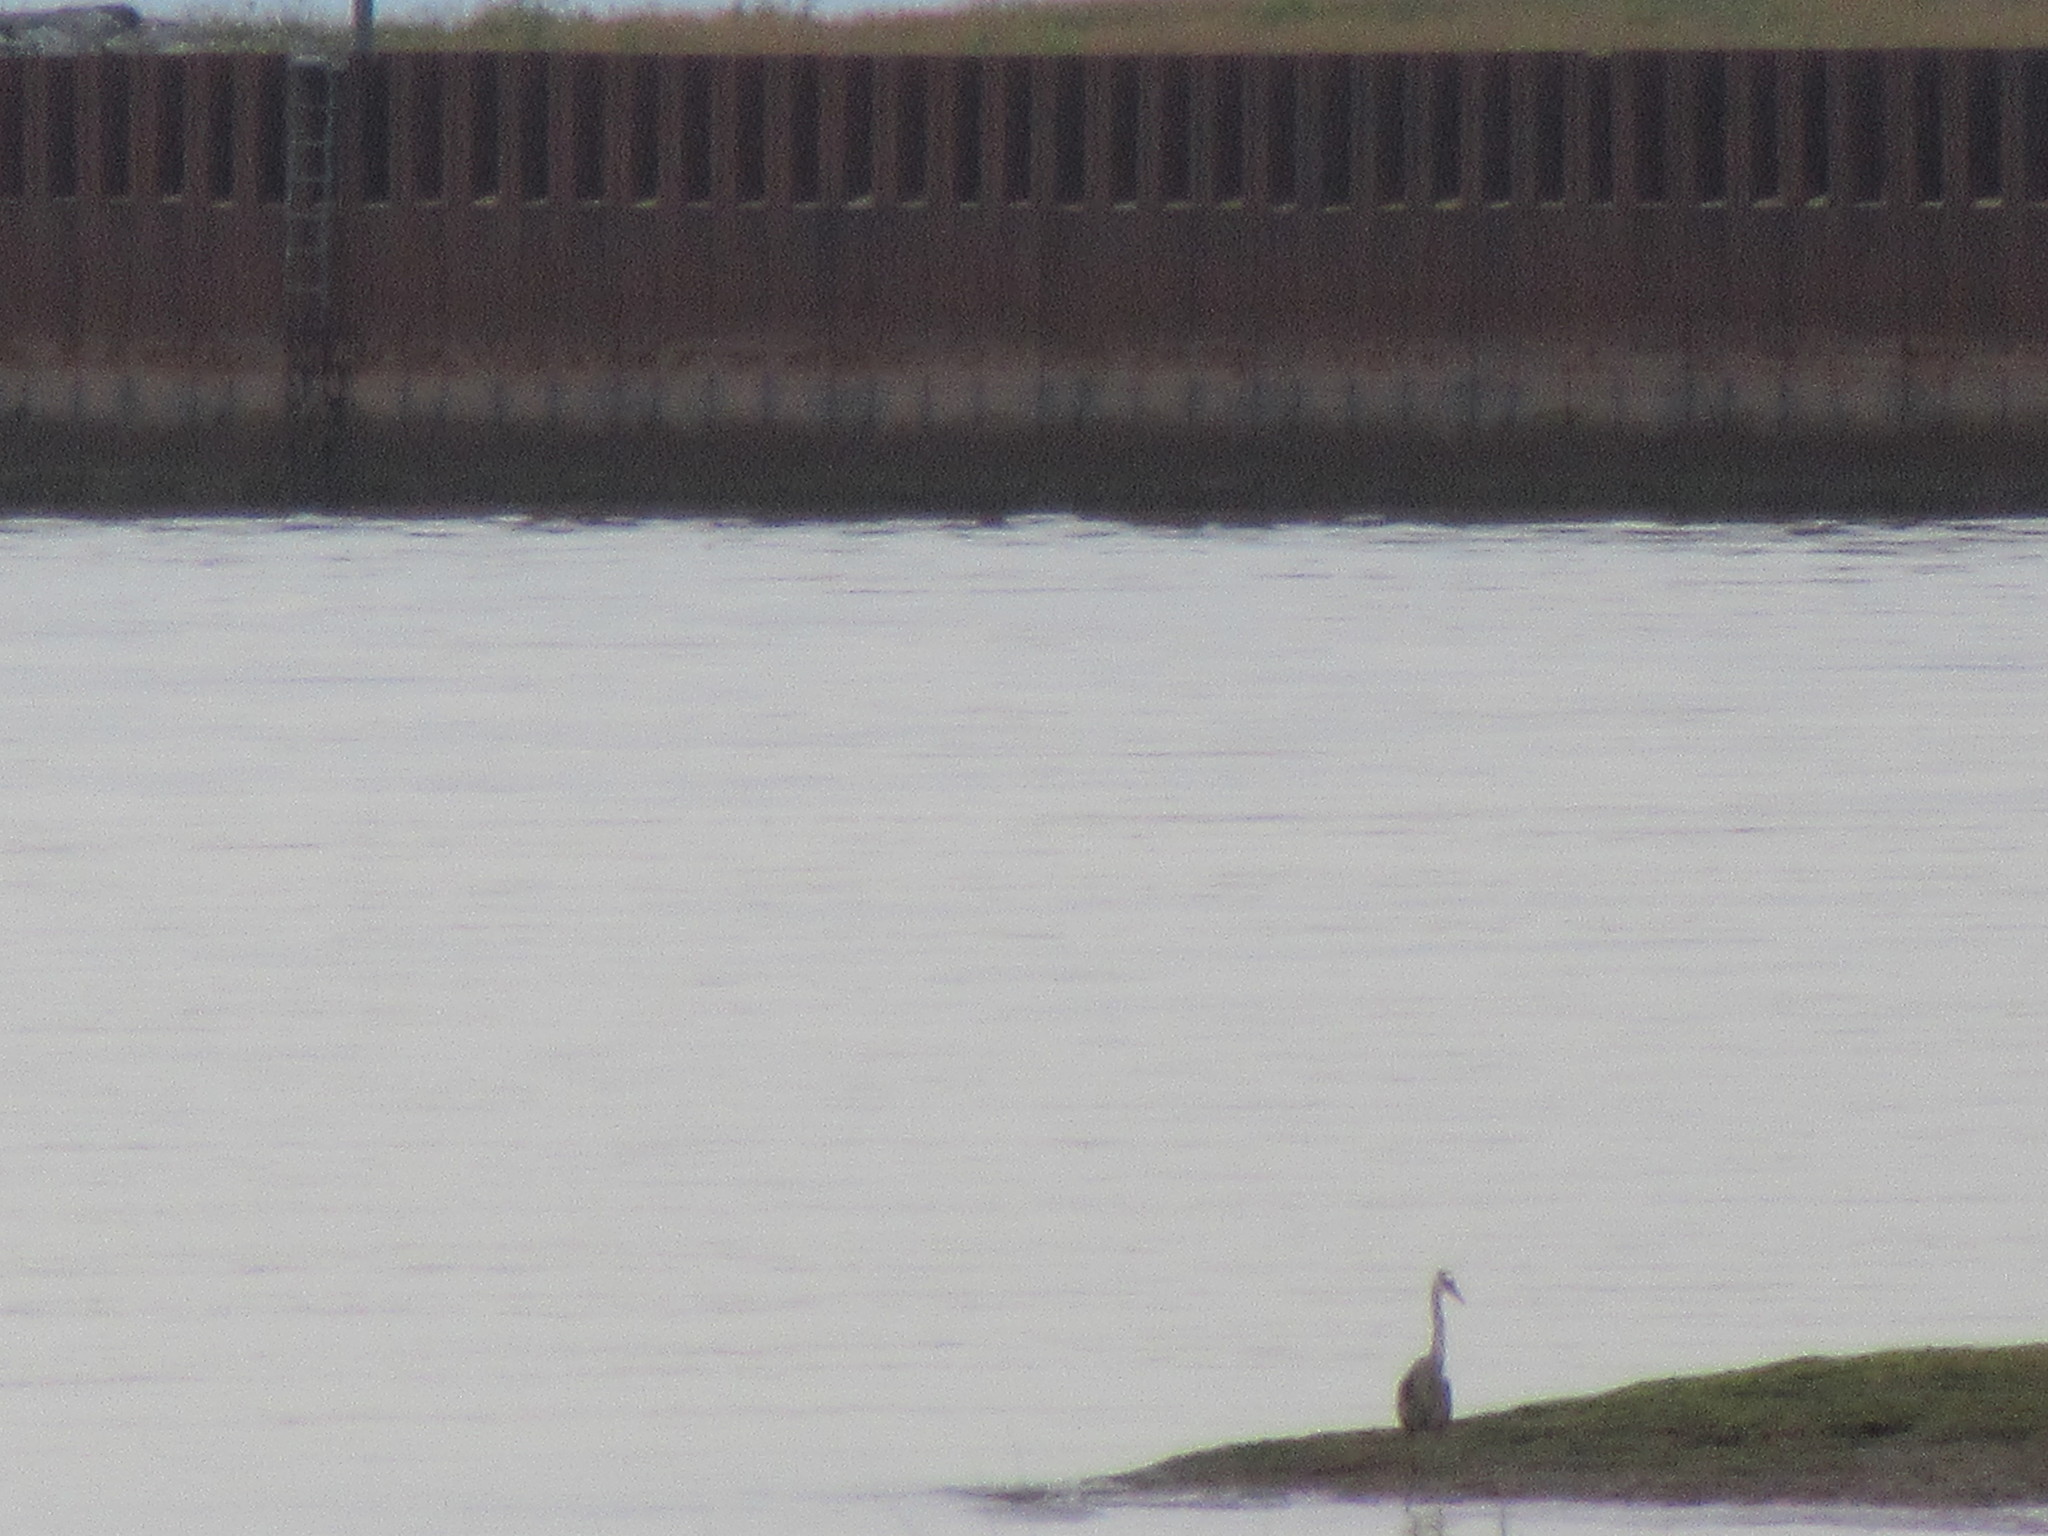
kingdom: Animalia
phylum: Chordata
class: Aves
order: Pelecaniformes
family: Ardeidae
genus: Ardea
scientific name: Ardea herodias
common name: Great blue heron
